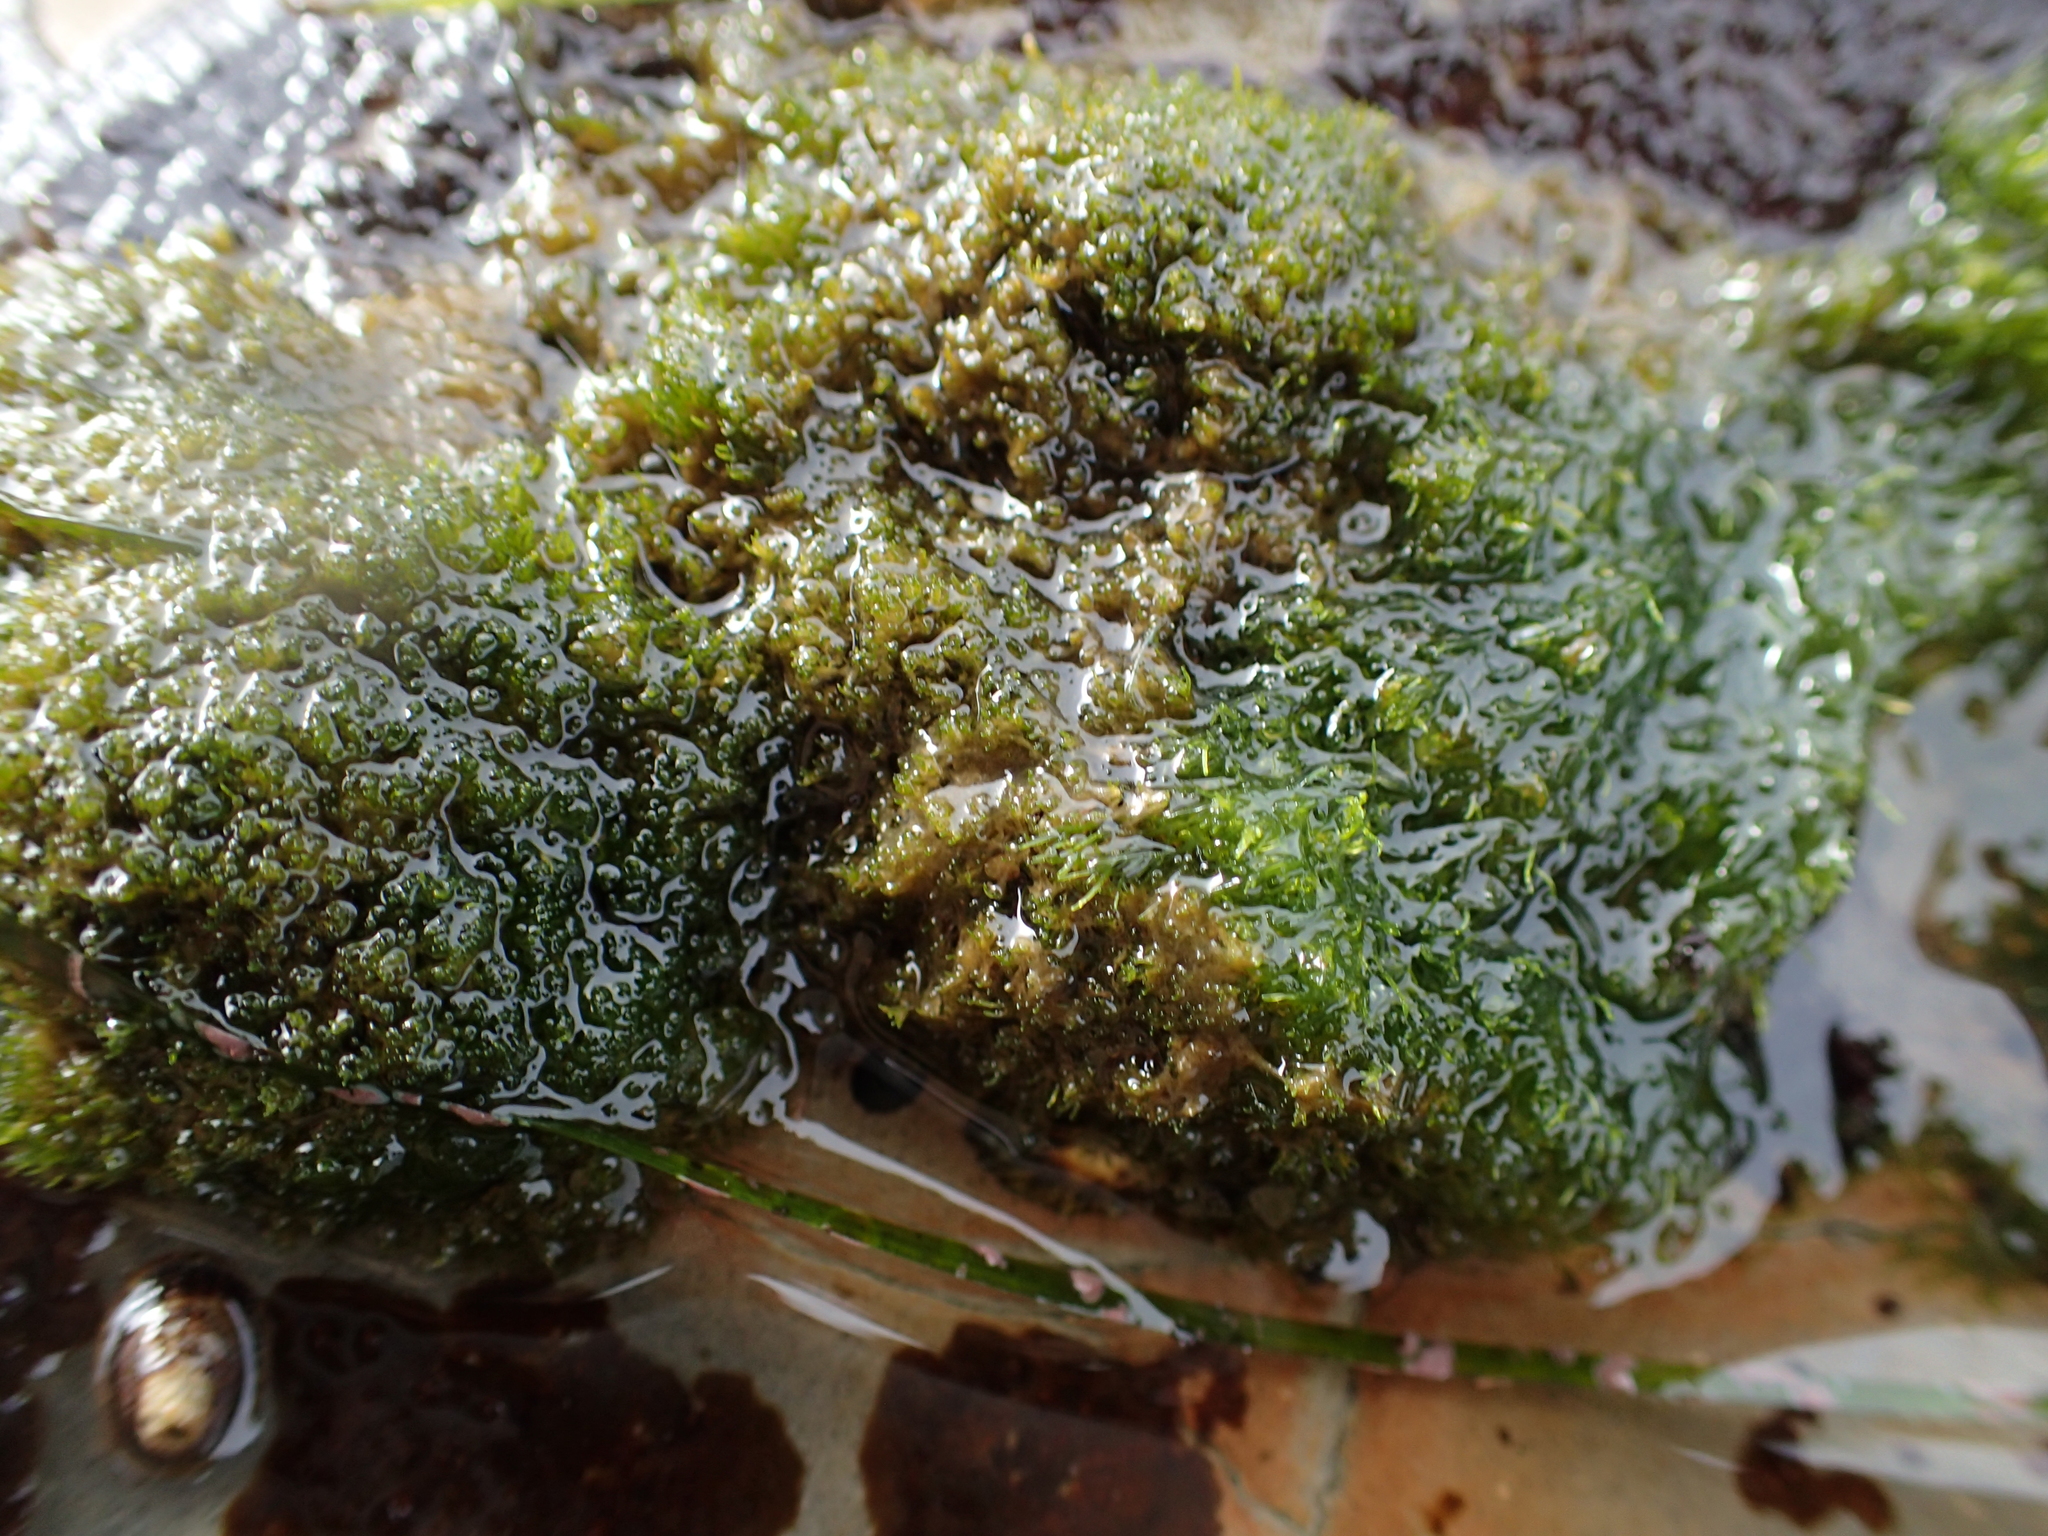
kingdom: Plantae
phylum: Chlorophyta
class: Ulvophyceae
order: Cladophorales
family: Cladophoraceae
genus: Cladophora
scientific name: Cladophora columbiana
